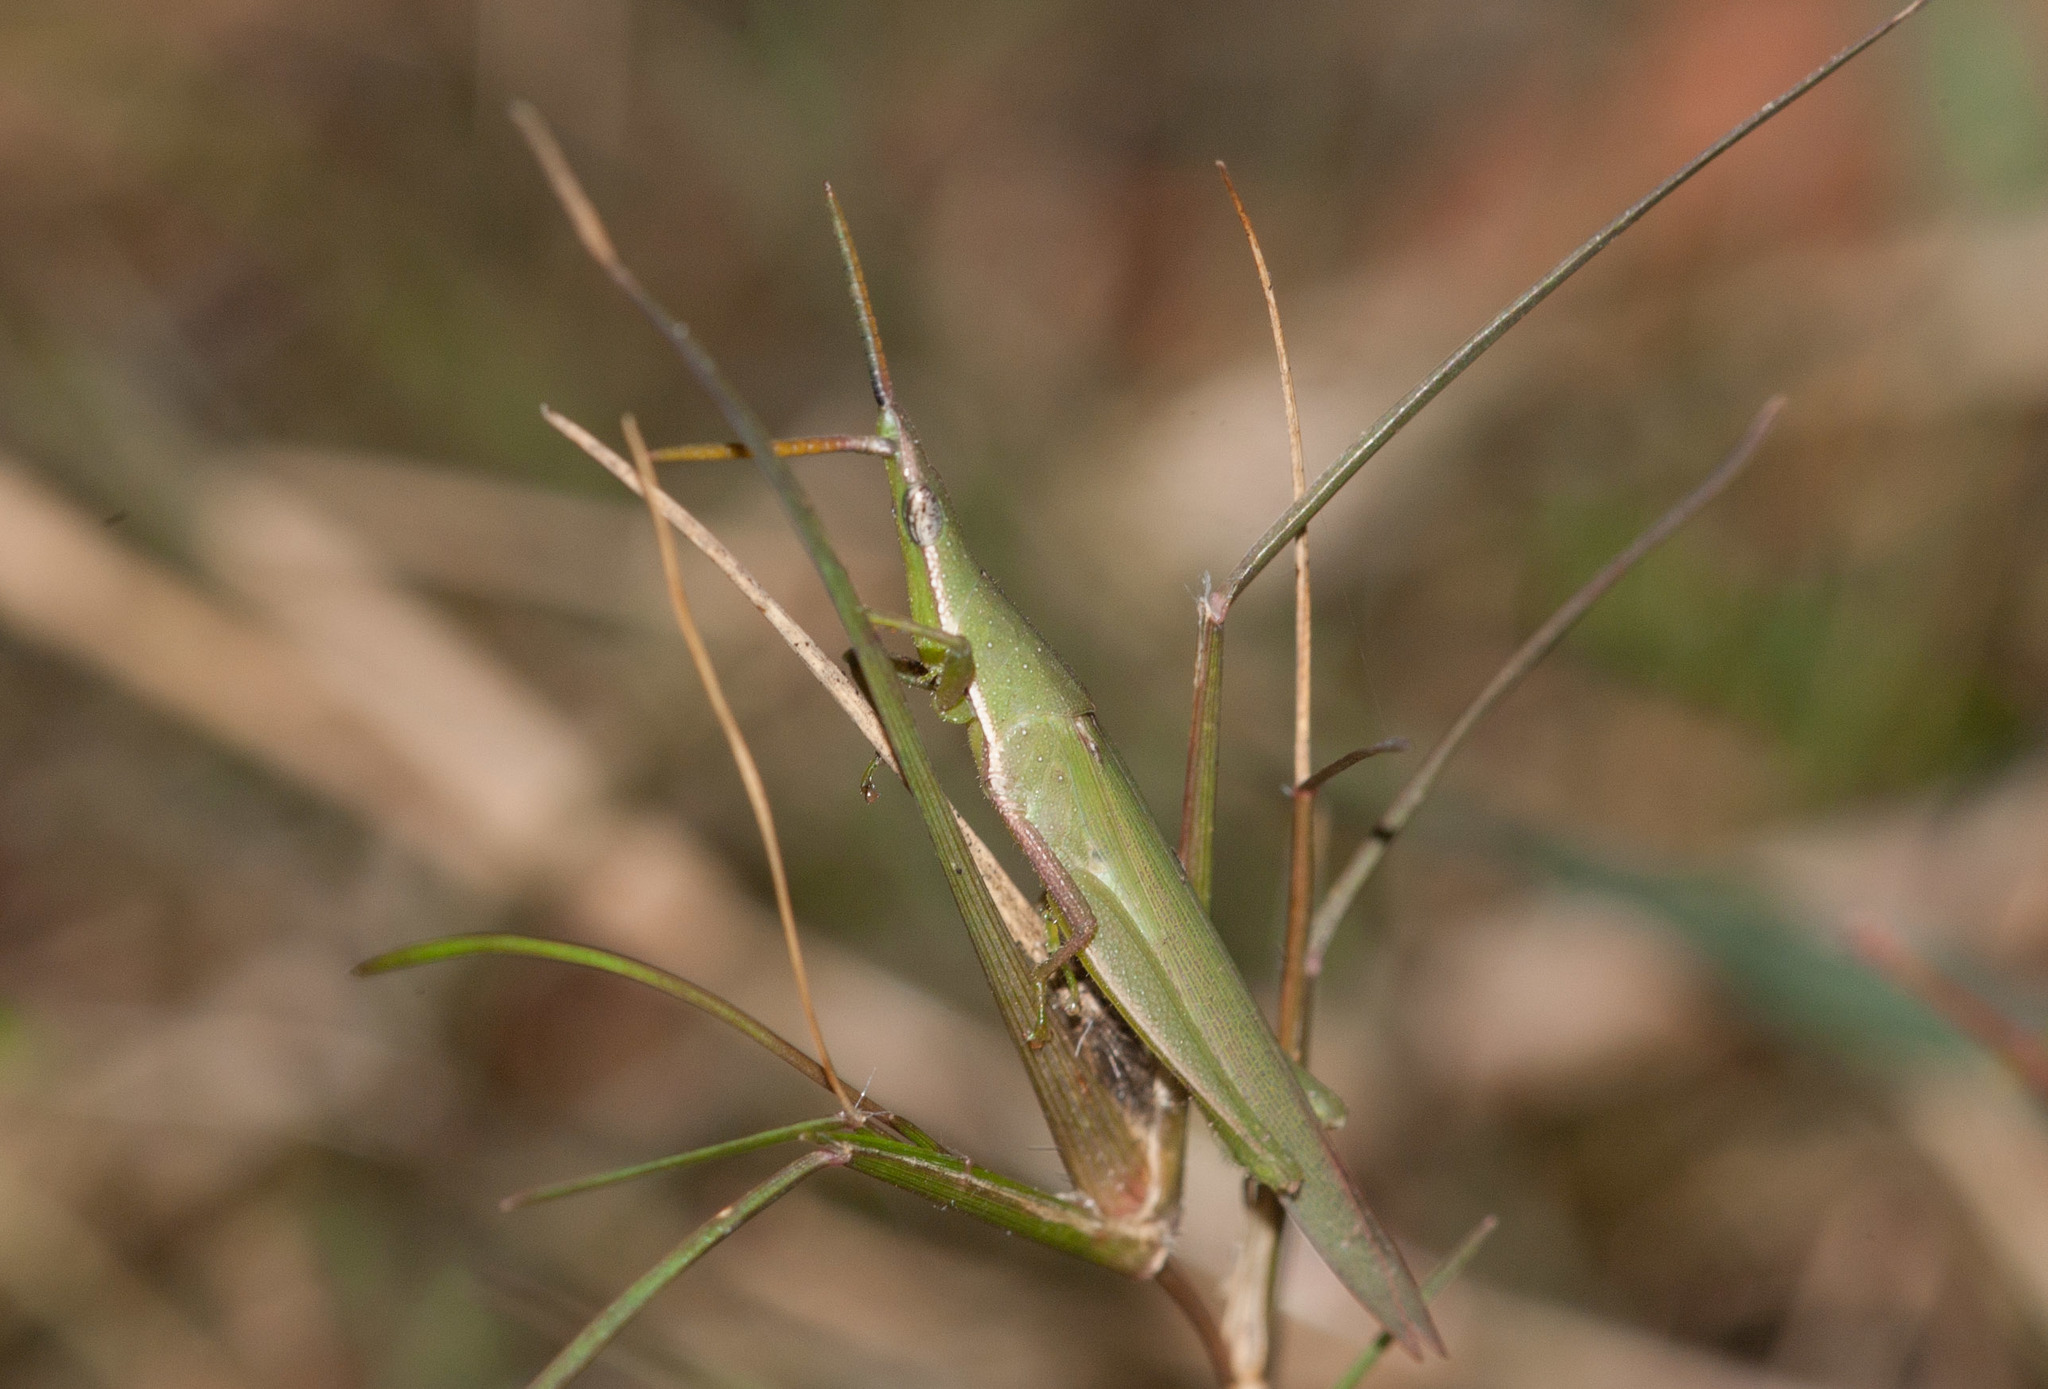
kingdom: Animalia
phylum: Arthropoda
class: Insecta
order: Orthoptera
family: Pyrgomorphidae
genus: Atractomorpha
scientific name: Atractomorpha similis
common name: Northern grass pyrgomorph
